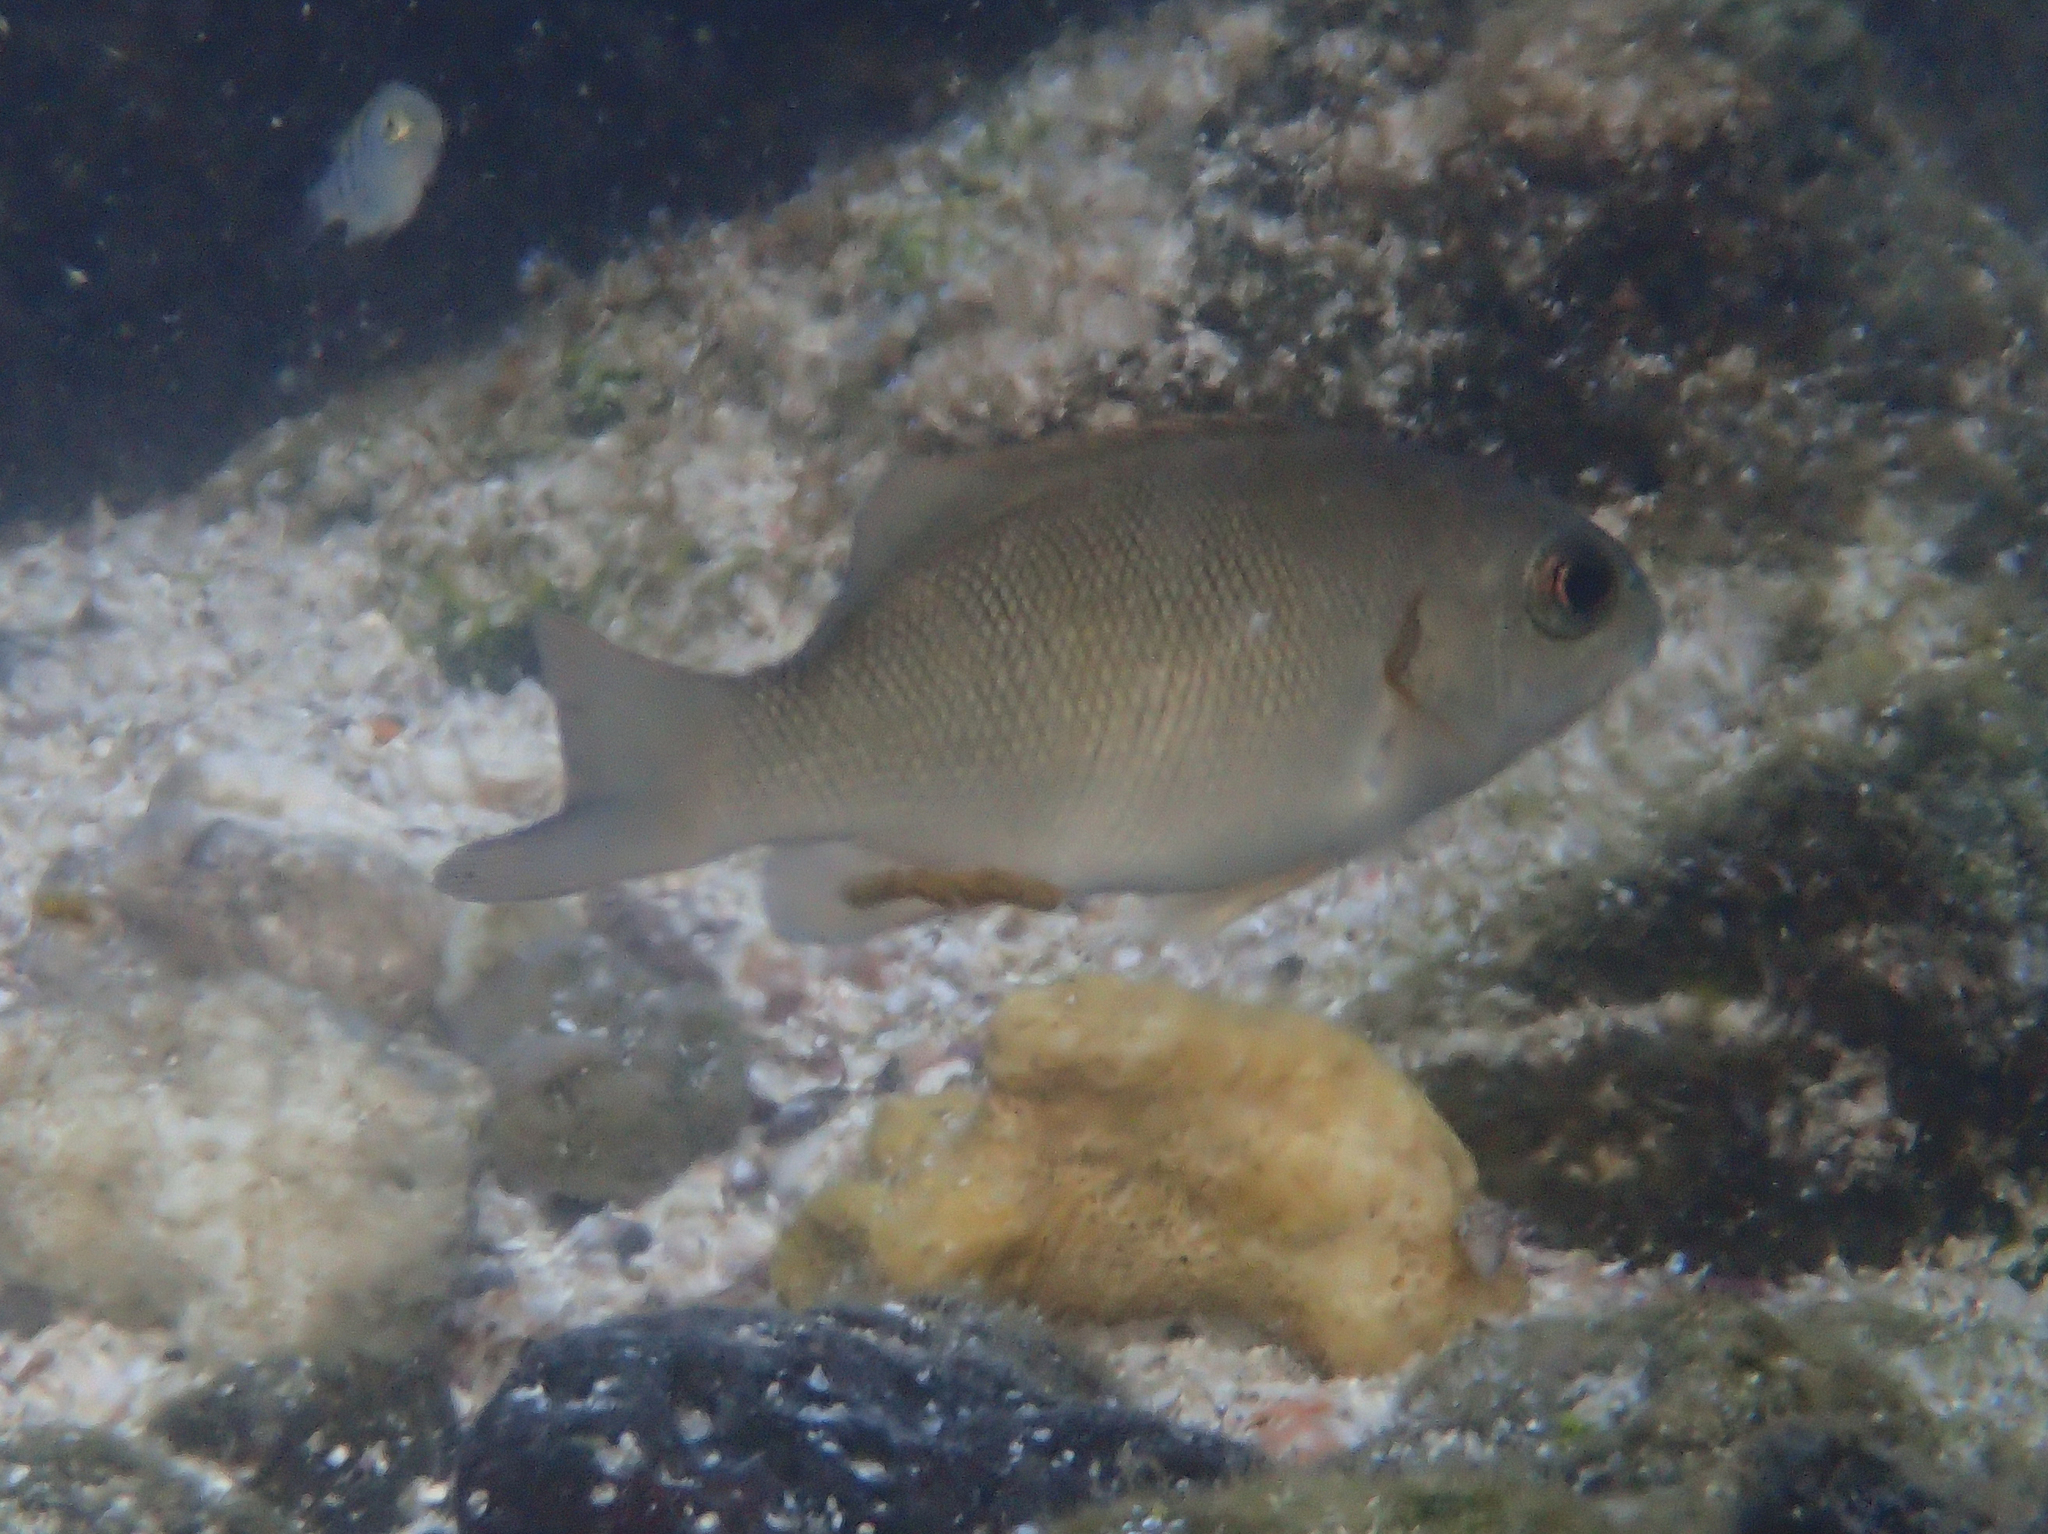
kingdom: Animalia
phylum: Chordata
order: Perciformes
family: Kyphosidae
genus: Girella
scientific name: Girella freminvillii
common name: Dusky sea-chub
